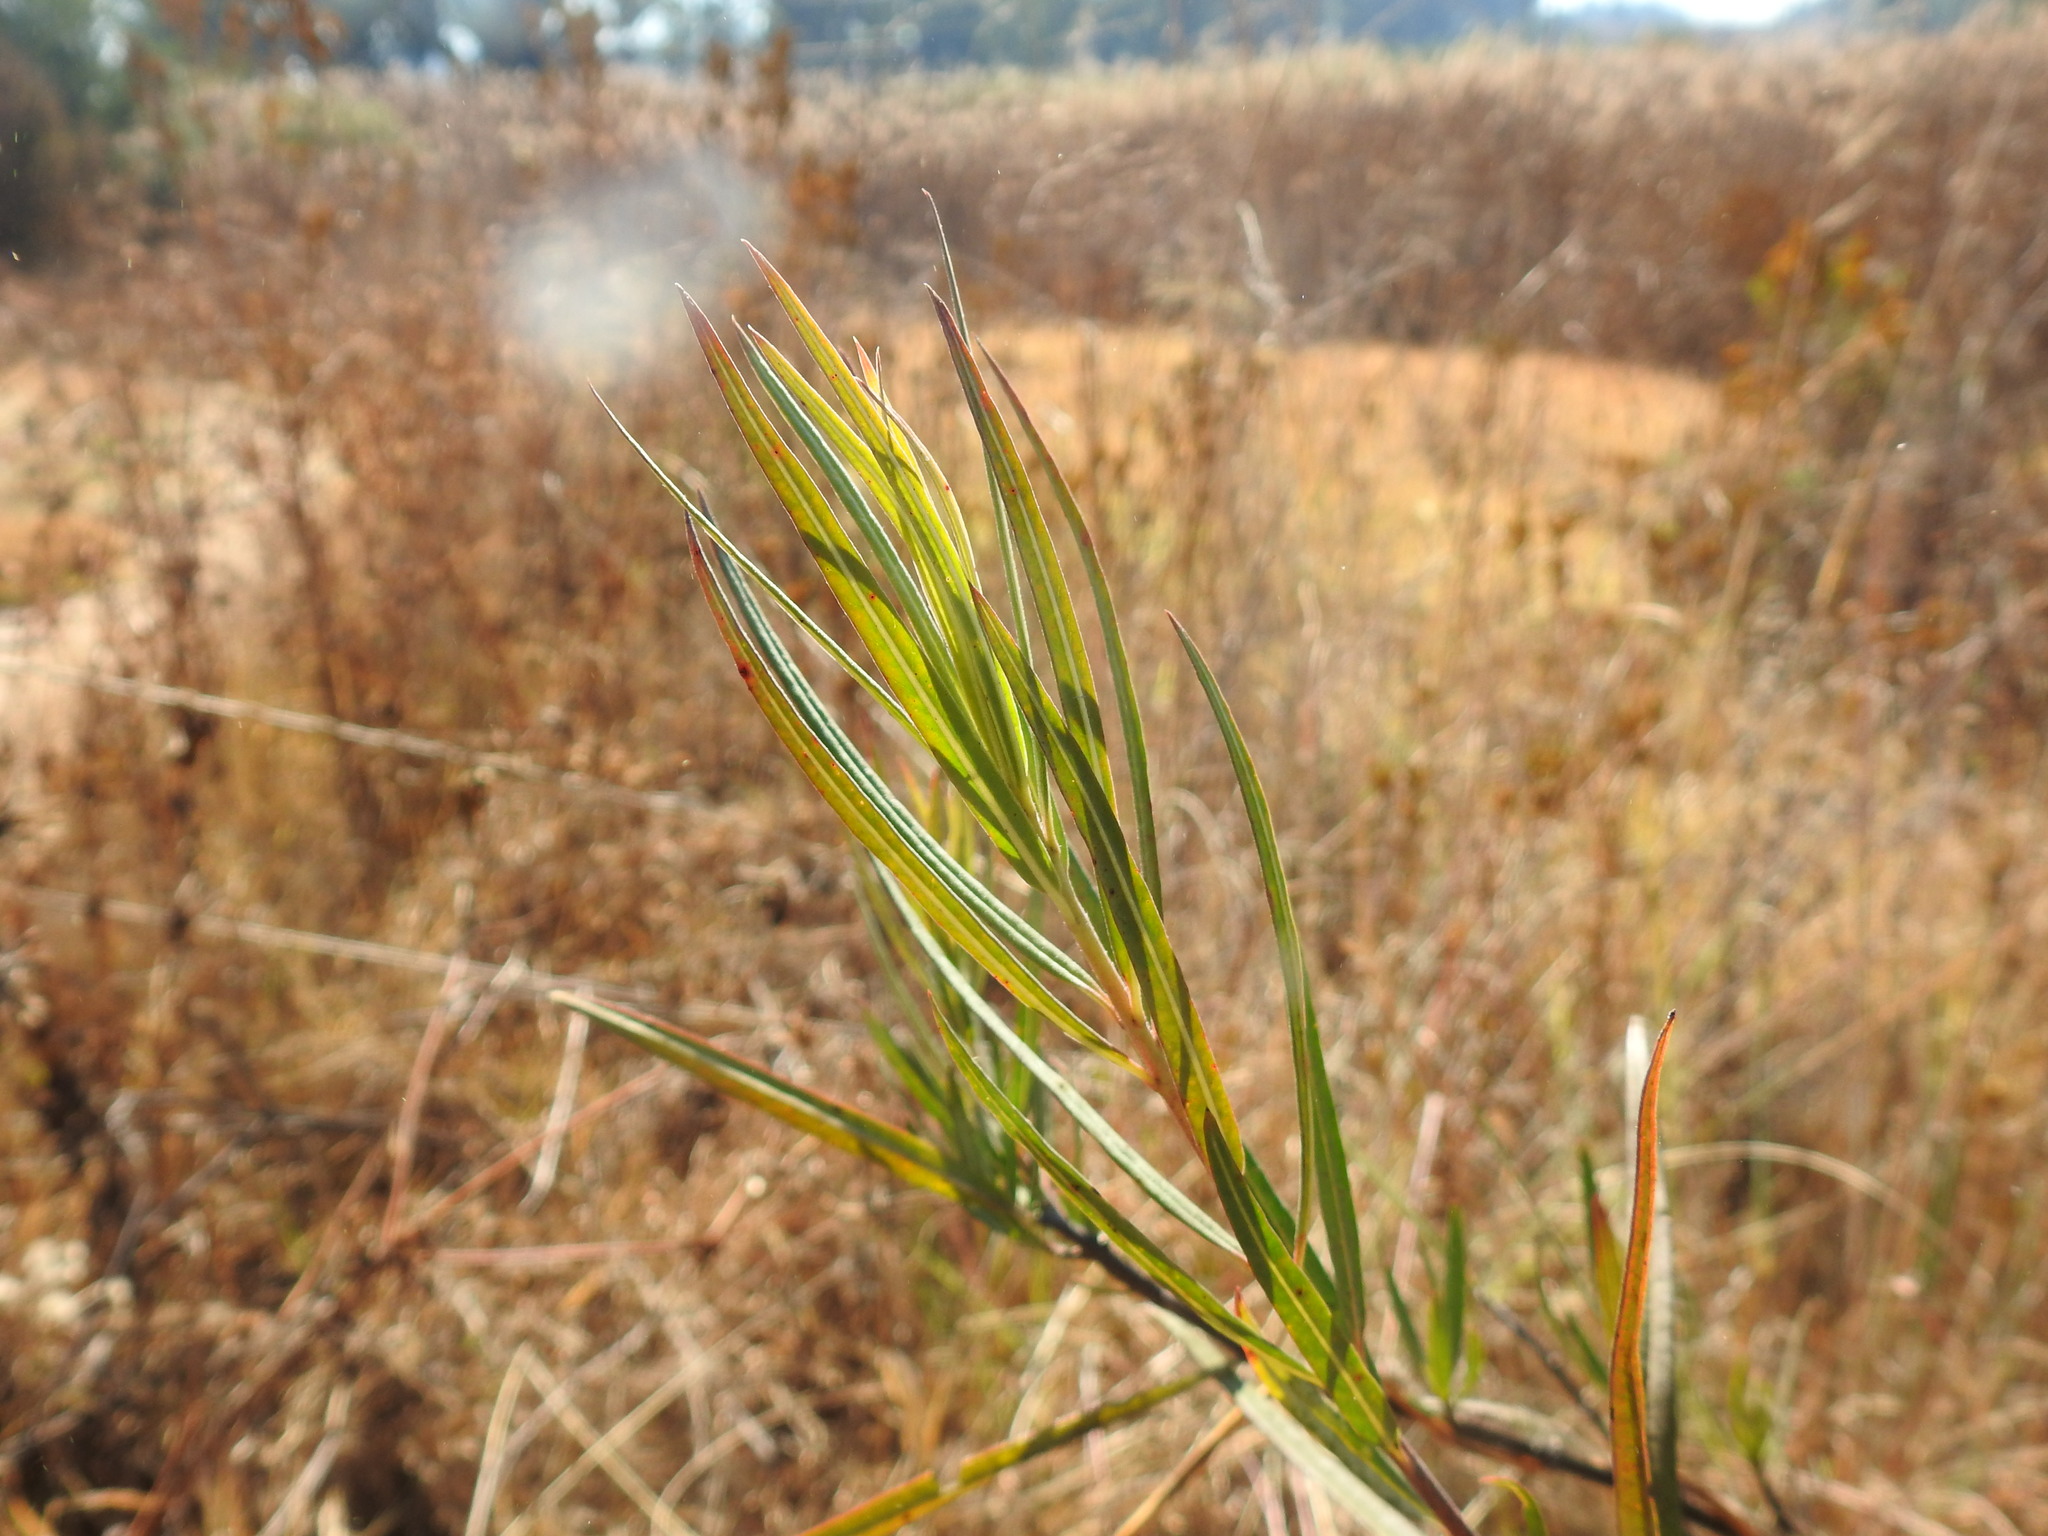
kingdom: Plantae
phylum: Tracheophyta
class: Magnoliopsida
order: Gentianales
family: Apocynaceae
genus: Gomphocarpus
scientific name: Gomphocarpus fruticosus
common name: Milkweed
